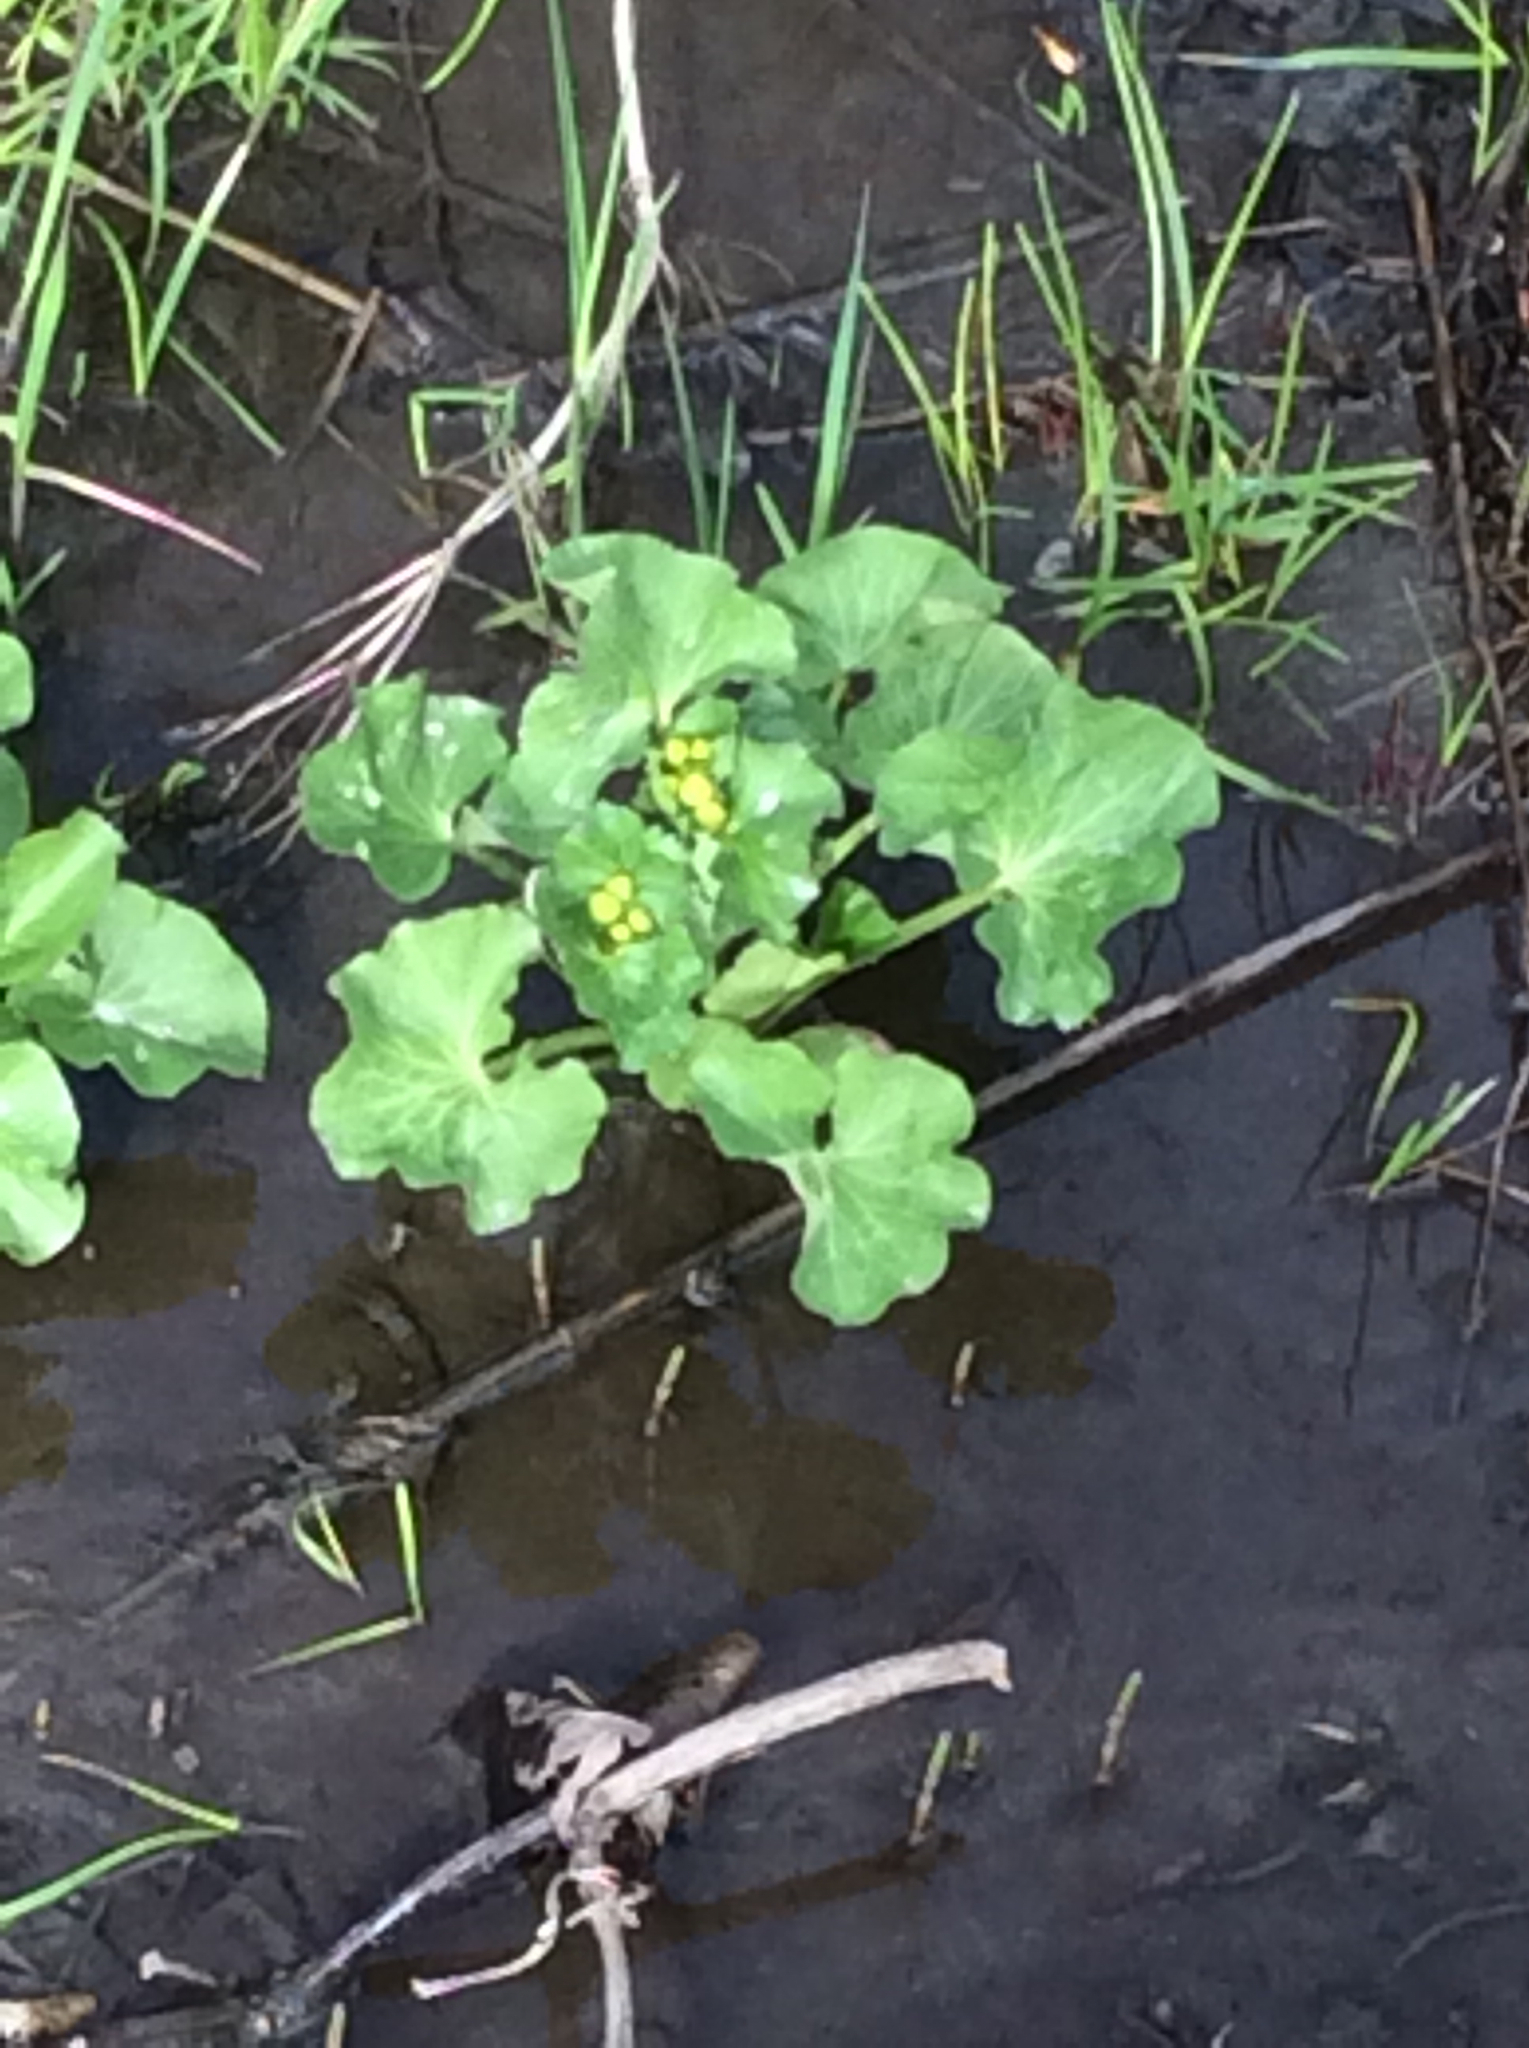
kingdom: Plantae
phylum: Tracheophyta
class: Magnoliopsida
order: Ranunculales
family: Ranunculaceae
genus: Caltha
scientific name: Caltha palustris
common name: Marsh marigold
